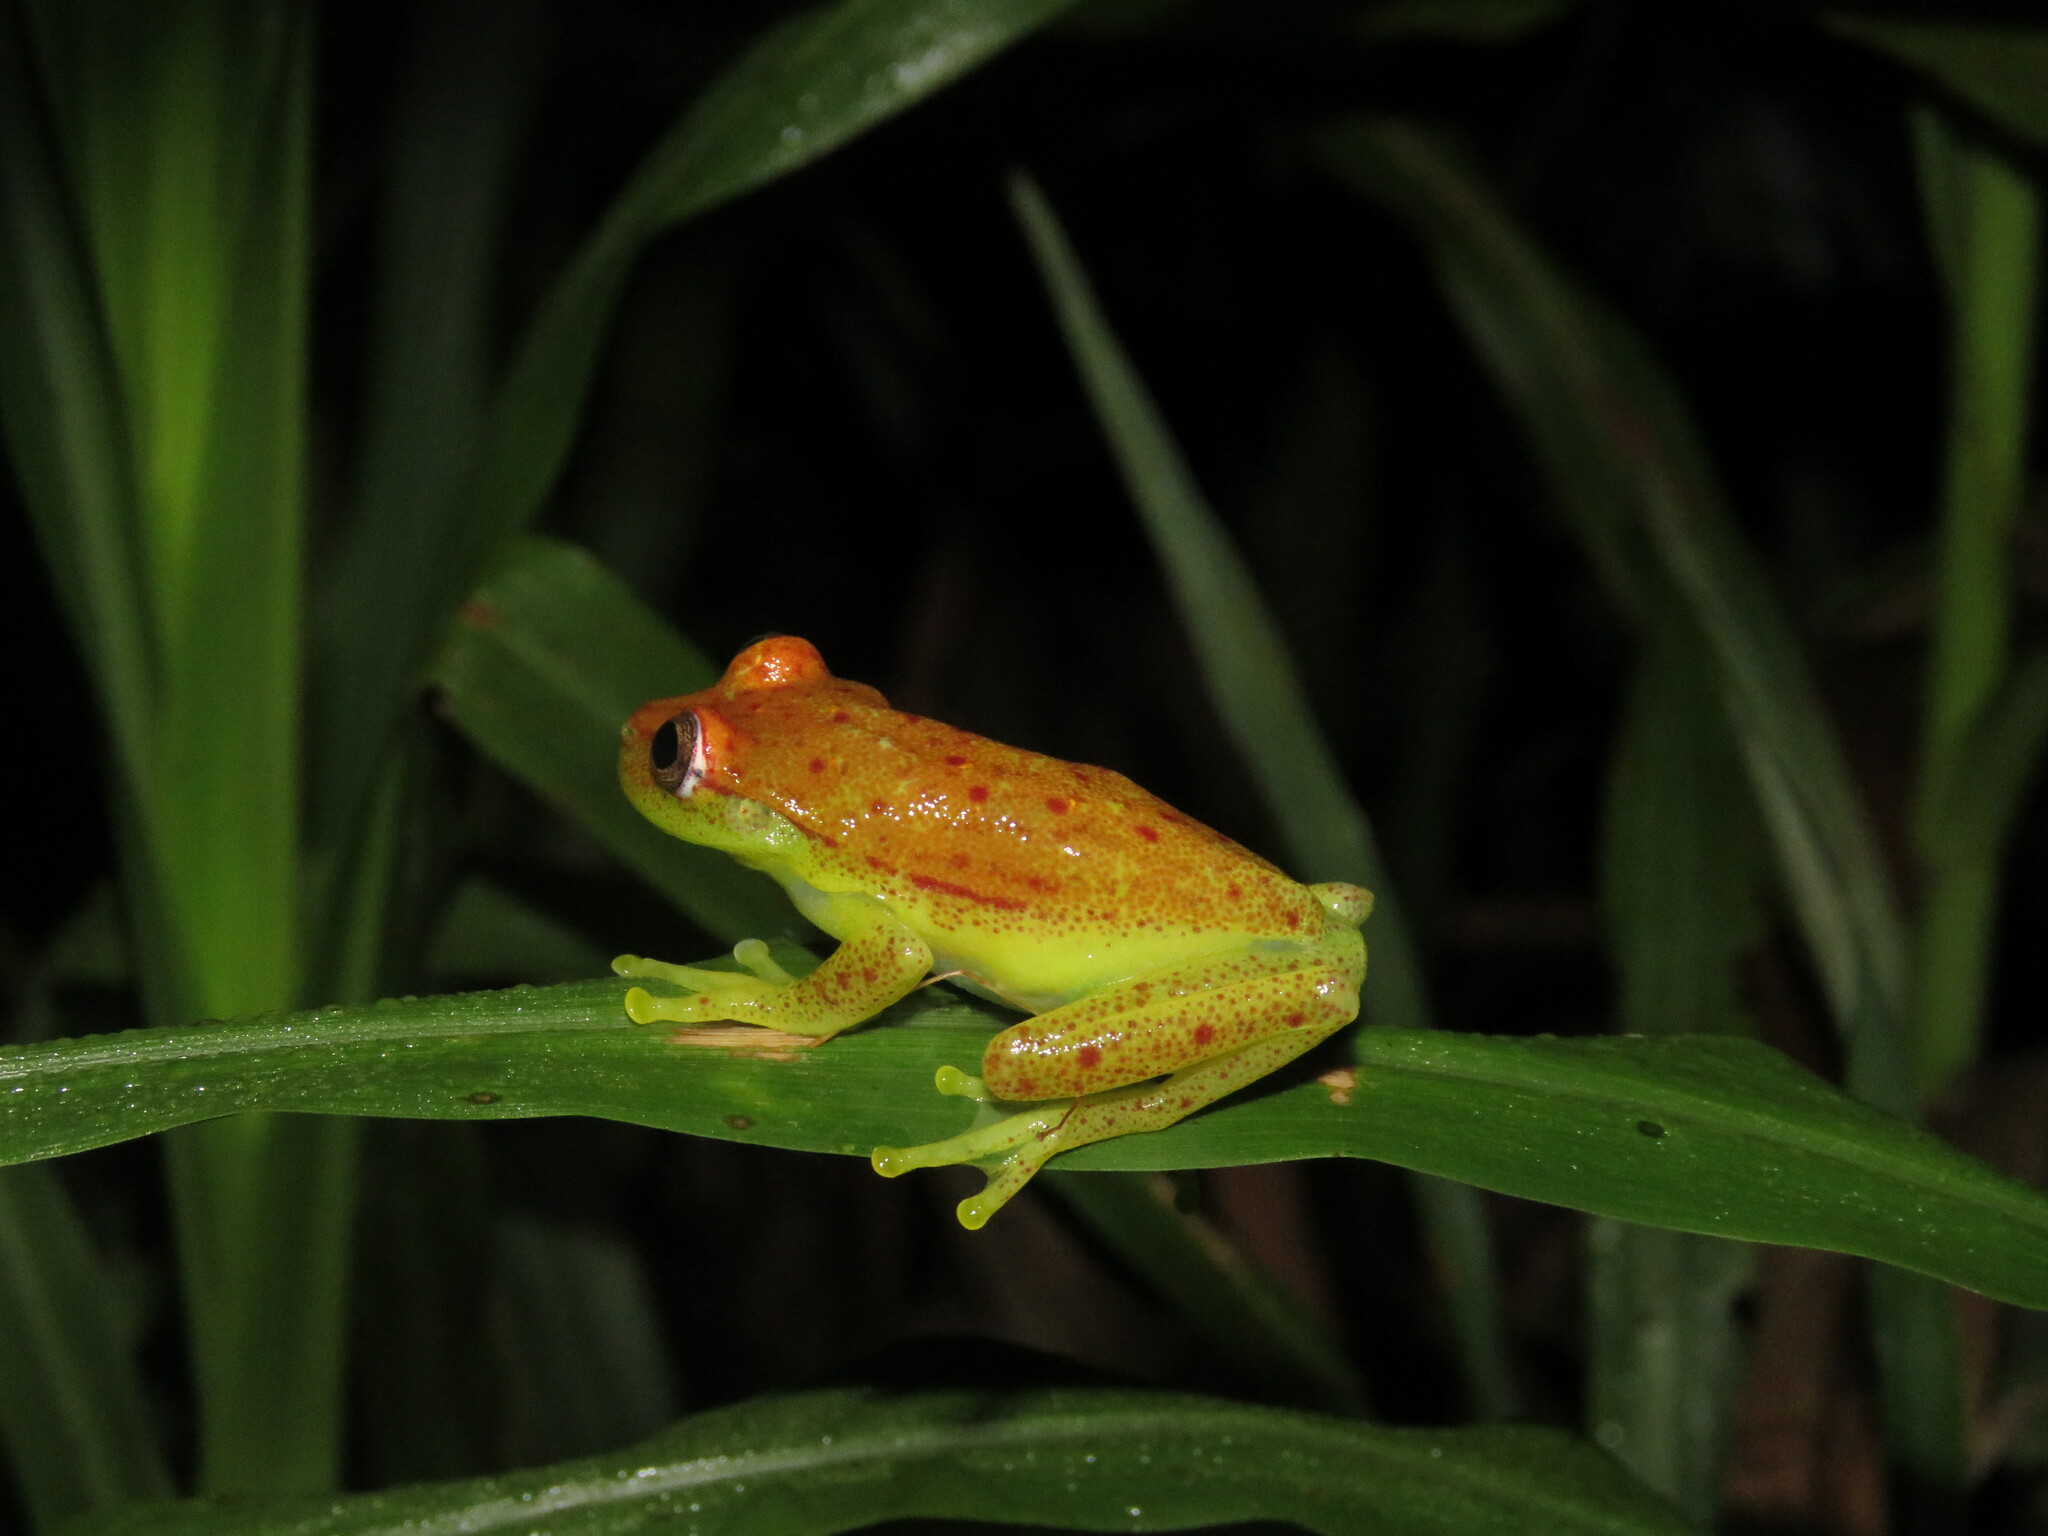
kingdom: Animalia
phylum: Chordata
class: Amphibia
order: Anura
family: Hylidae
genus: Boana
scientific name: Boana punctata
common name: Polka-dot treefrog
